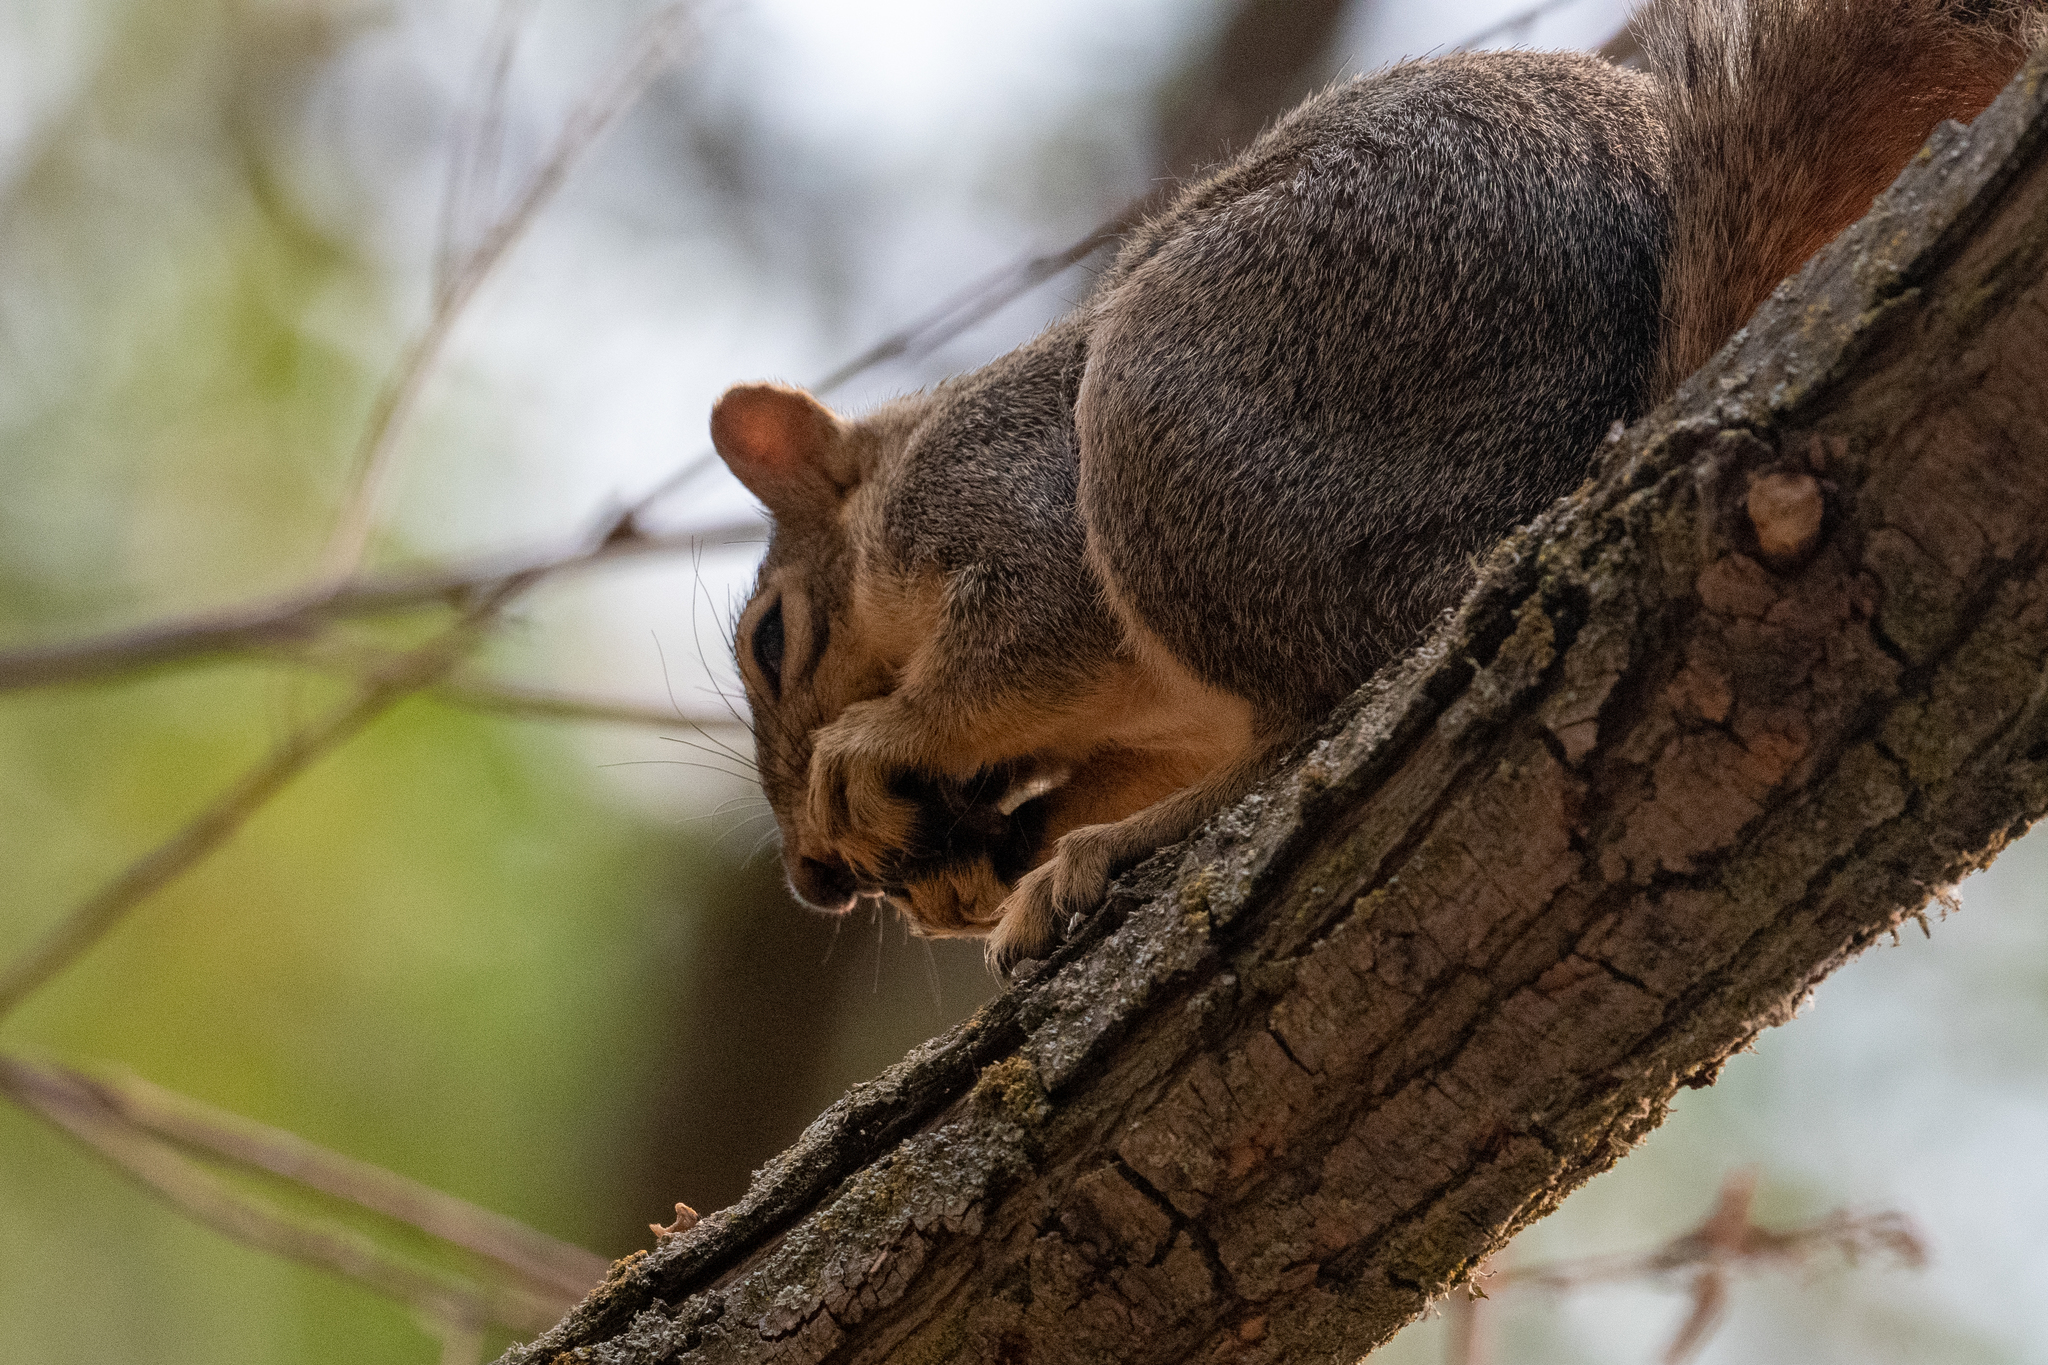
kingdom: Animalia
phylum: Chordata
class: Mammalia
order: Rodentia
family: Sciuridae
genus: Sciurus
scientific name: Sciurus niger
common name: Fox squirrel
